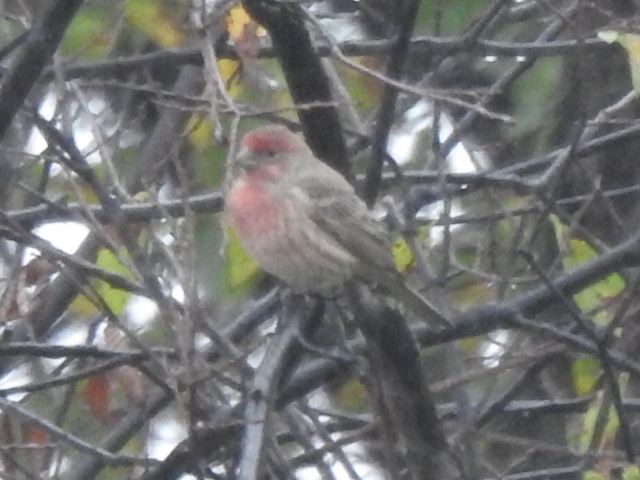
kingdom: Animalia
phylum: Chordata
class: Aves
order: Passeriformes
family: Fringillidae
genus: Haemorhous
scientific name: Haemorhous mexicanus
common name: House finch
